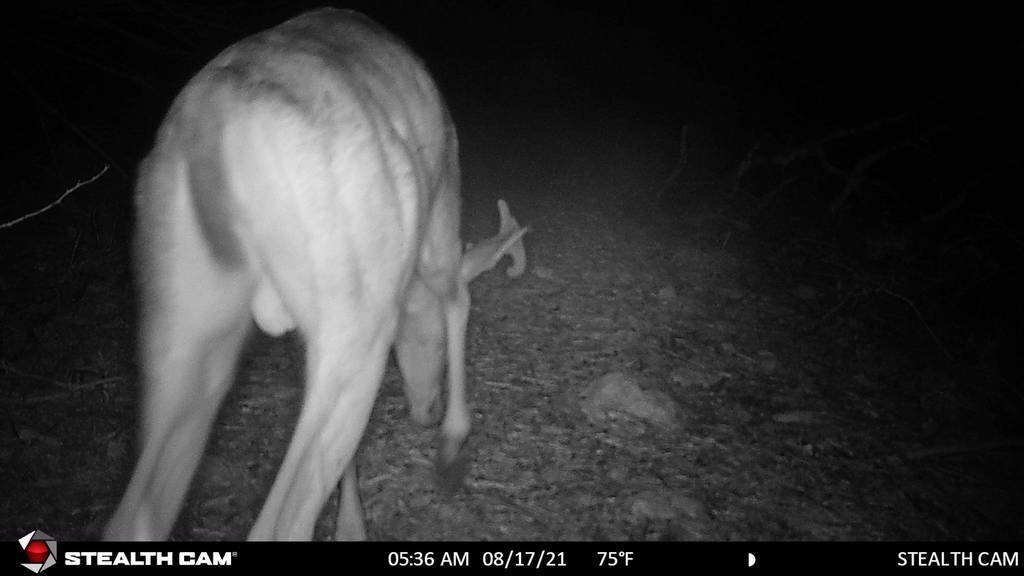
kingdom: Animalia
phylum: Chordata
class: Mammalia
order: Artiodactyla
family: Cervidae
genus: Odocoileus
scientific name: Odocoileus virginianus
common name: White-tailed deer
